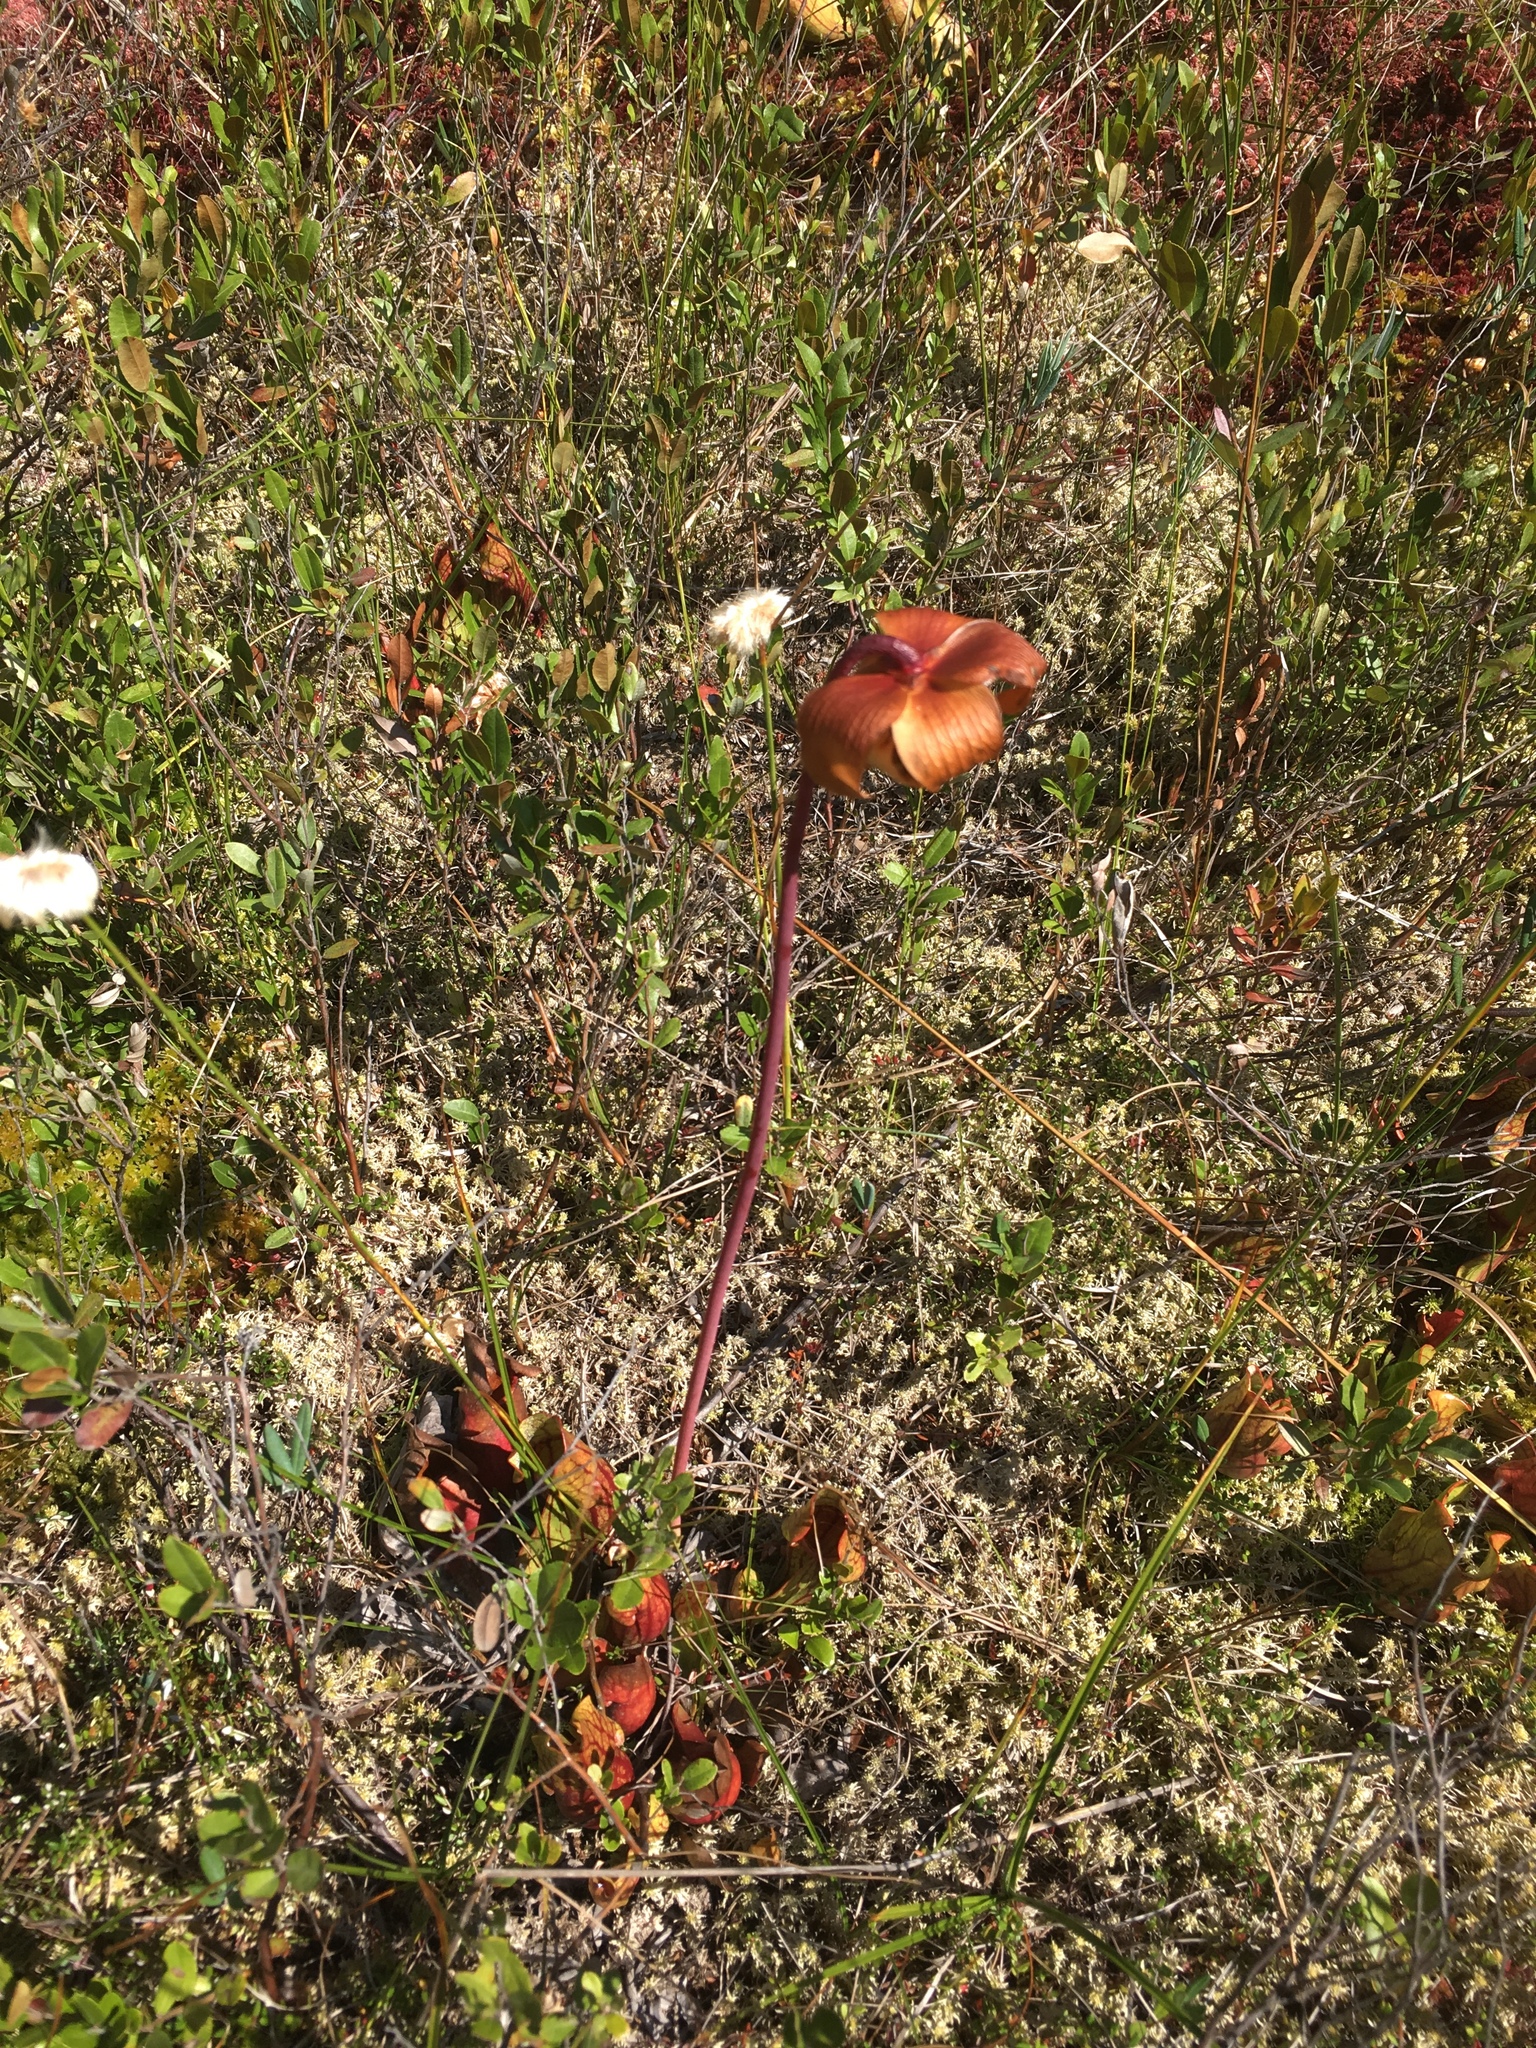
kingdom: Plantae
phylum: Tracheophyta
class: Magnoliopsida
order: Ericales
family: Sarraceniaceae
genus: Sarracenia
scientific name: Sarracenia purpurea
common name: Pitcherplant
